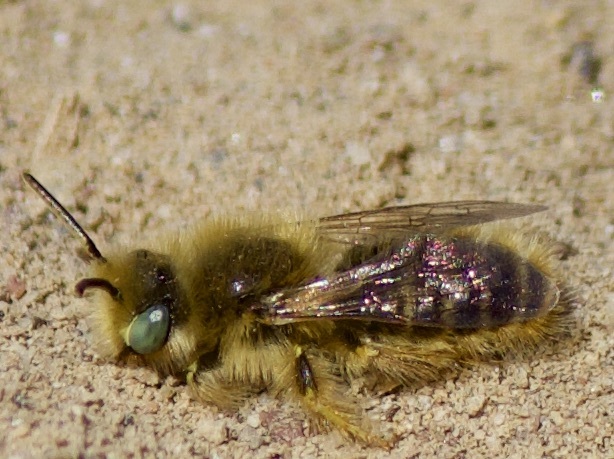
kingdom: Animalia
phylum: Arthropoda
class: Insecta
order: Hymenoptera
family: Andrenidae
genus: Calliopsis
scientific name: Calliopsis hirsutula
